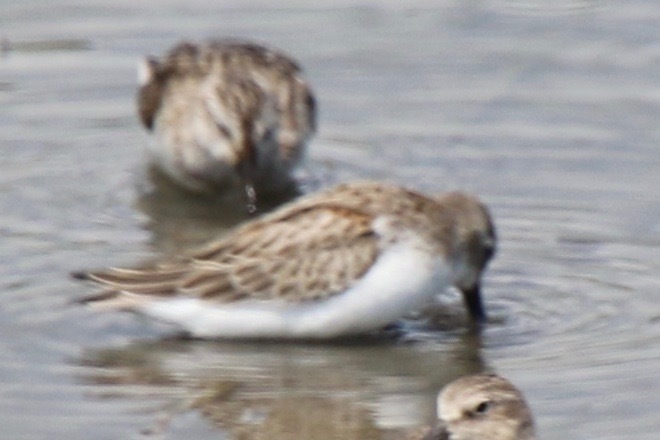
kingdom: Animalia
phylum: Chordata
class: Aves
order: Charadriiformes
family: Scolopacidae
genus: Calidris
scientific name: Calidris mauri
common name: Western sandpiper
